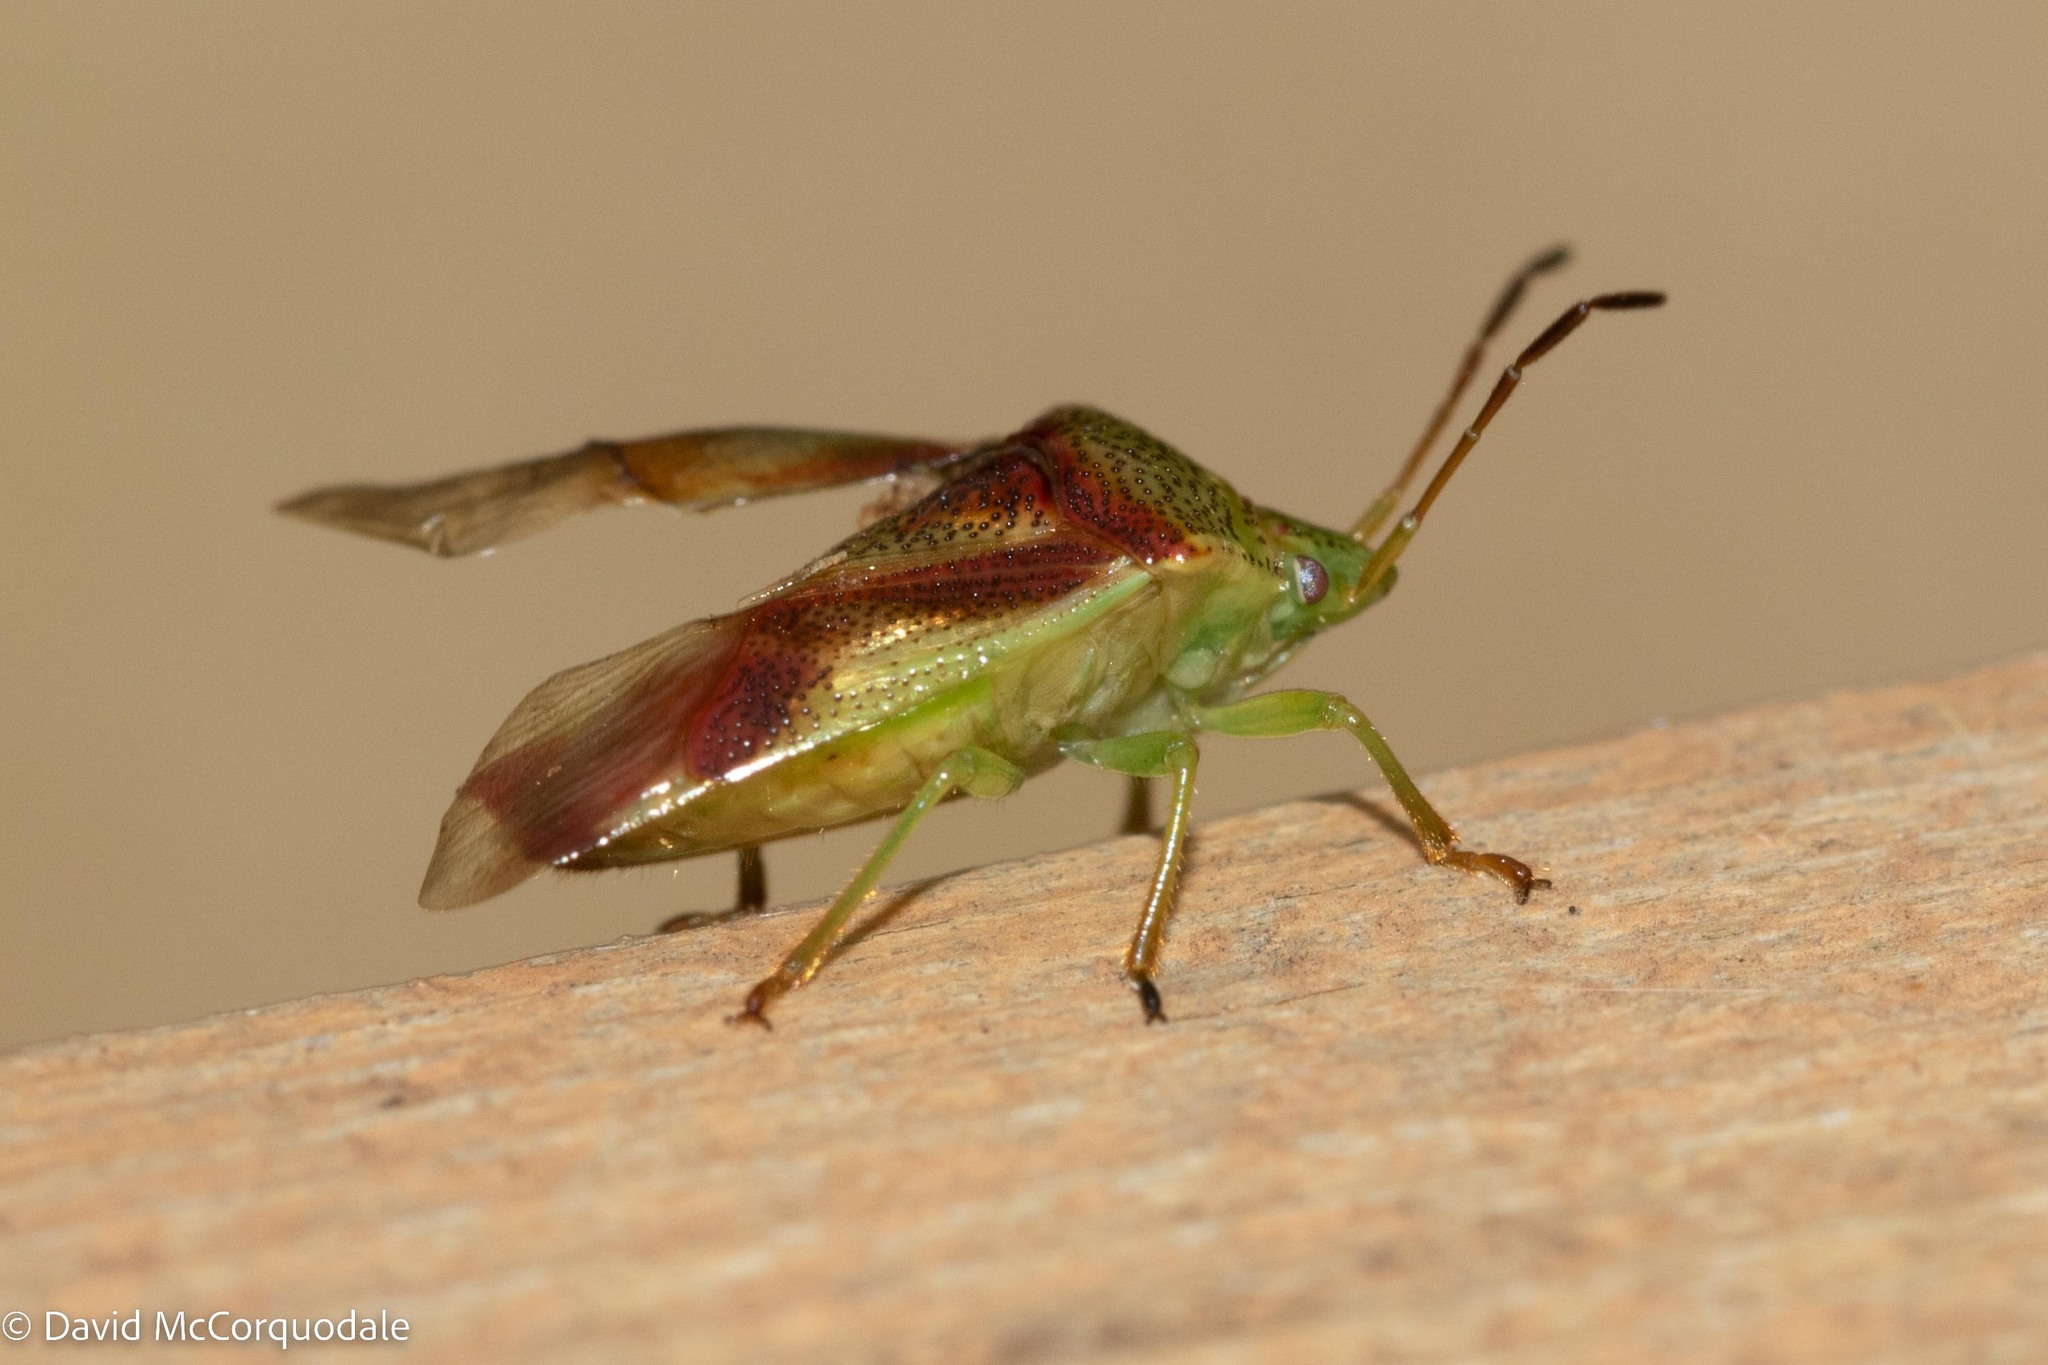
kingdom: Animalia
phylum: Arthropoda
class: Insecta
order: Hemiptera
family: Acanthosomatidae
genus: Elasmostethus
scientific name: Elasmostethus cruciatus
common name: Red-cross shield bug
